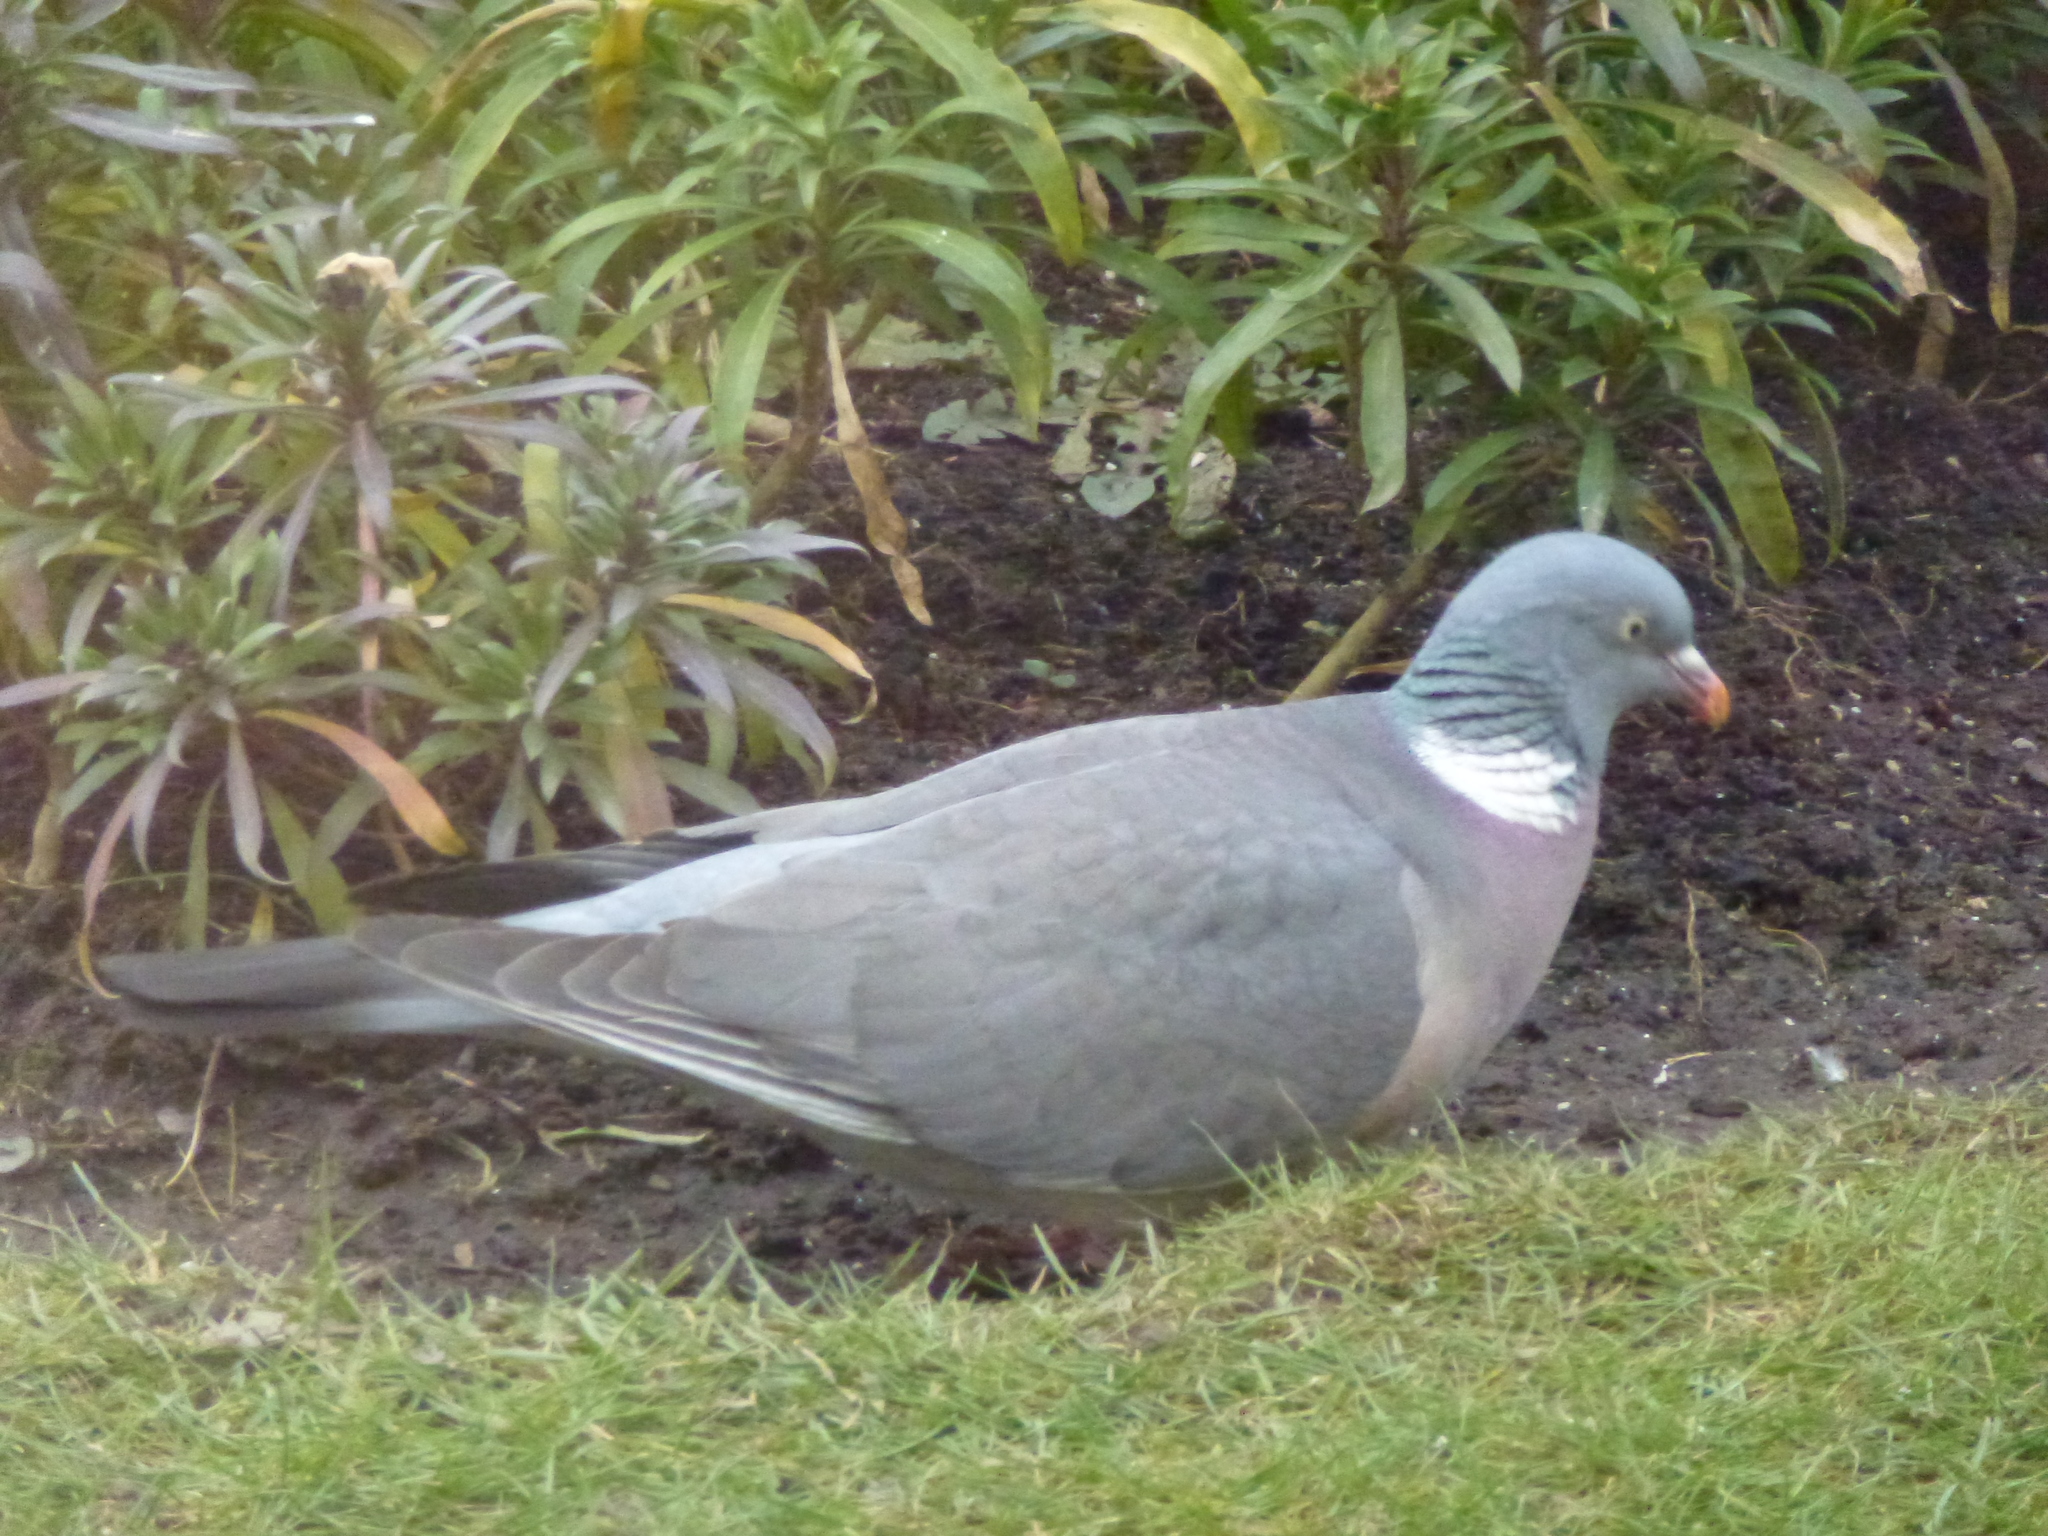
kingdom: Animalia
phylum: Chordata
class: Aves
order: Columbiformes
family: Columbidae
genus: Columba
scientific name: Columba palumbus
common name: Common wood pigeon
